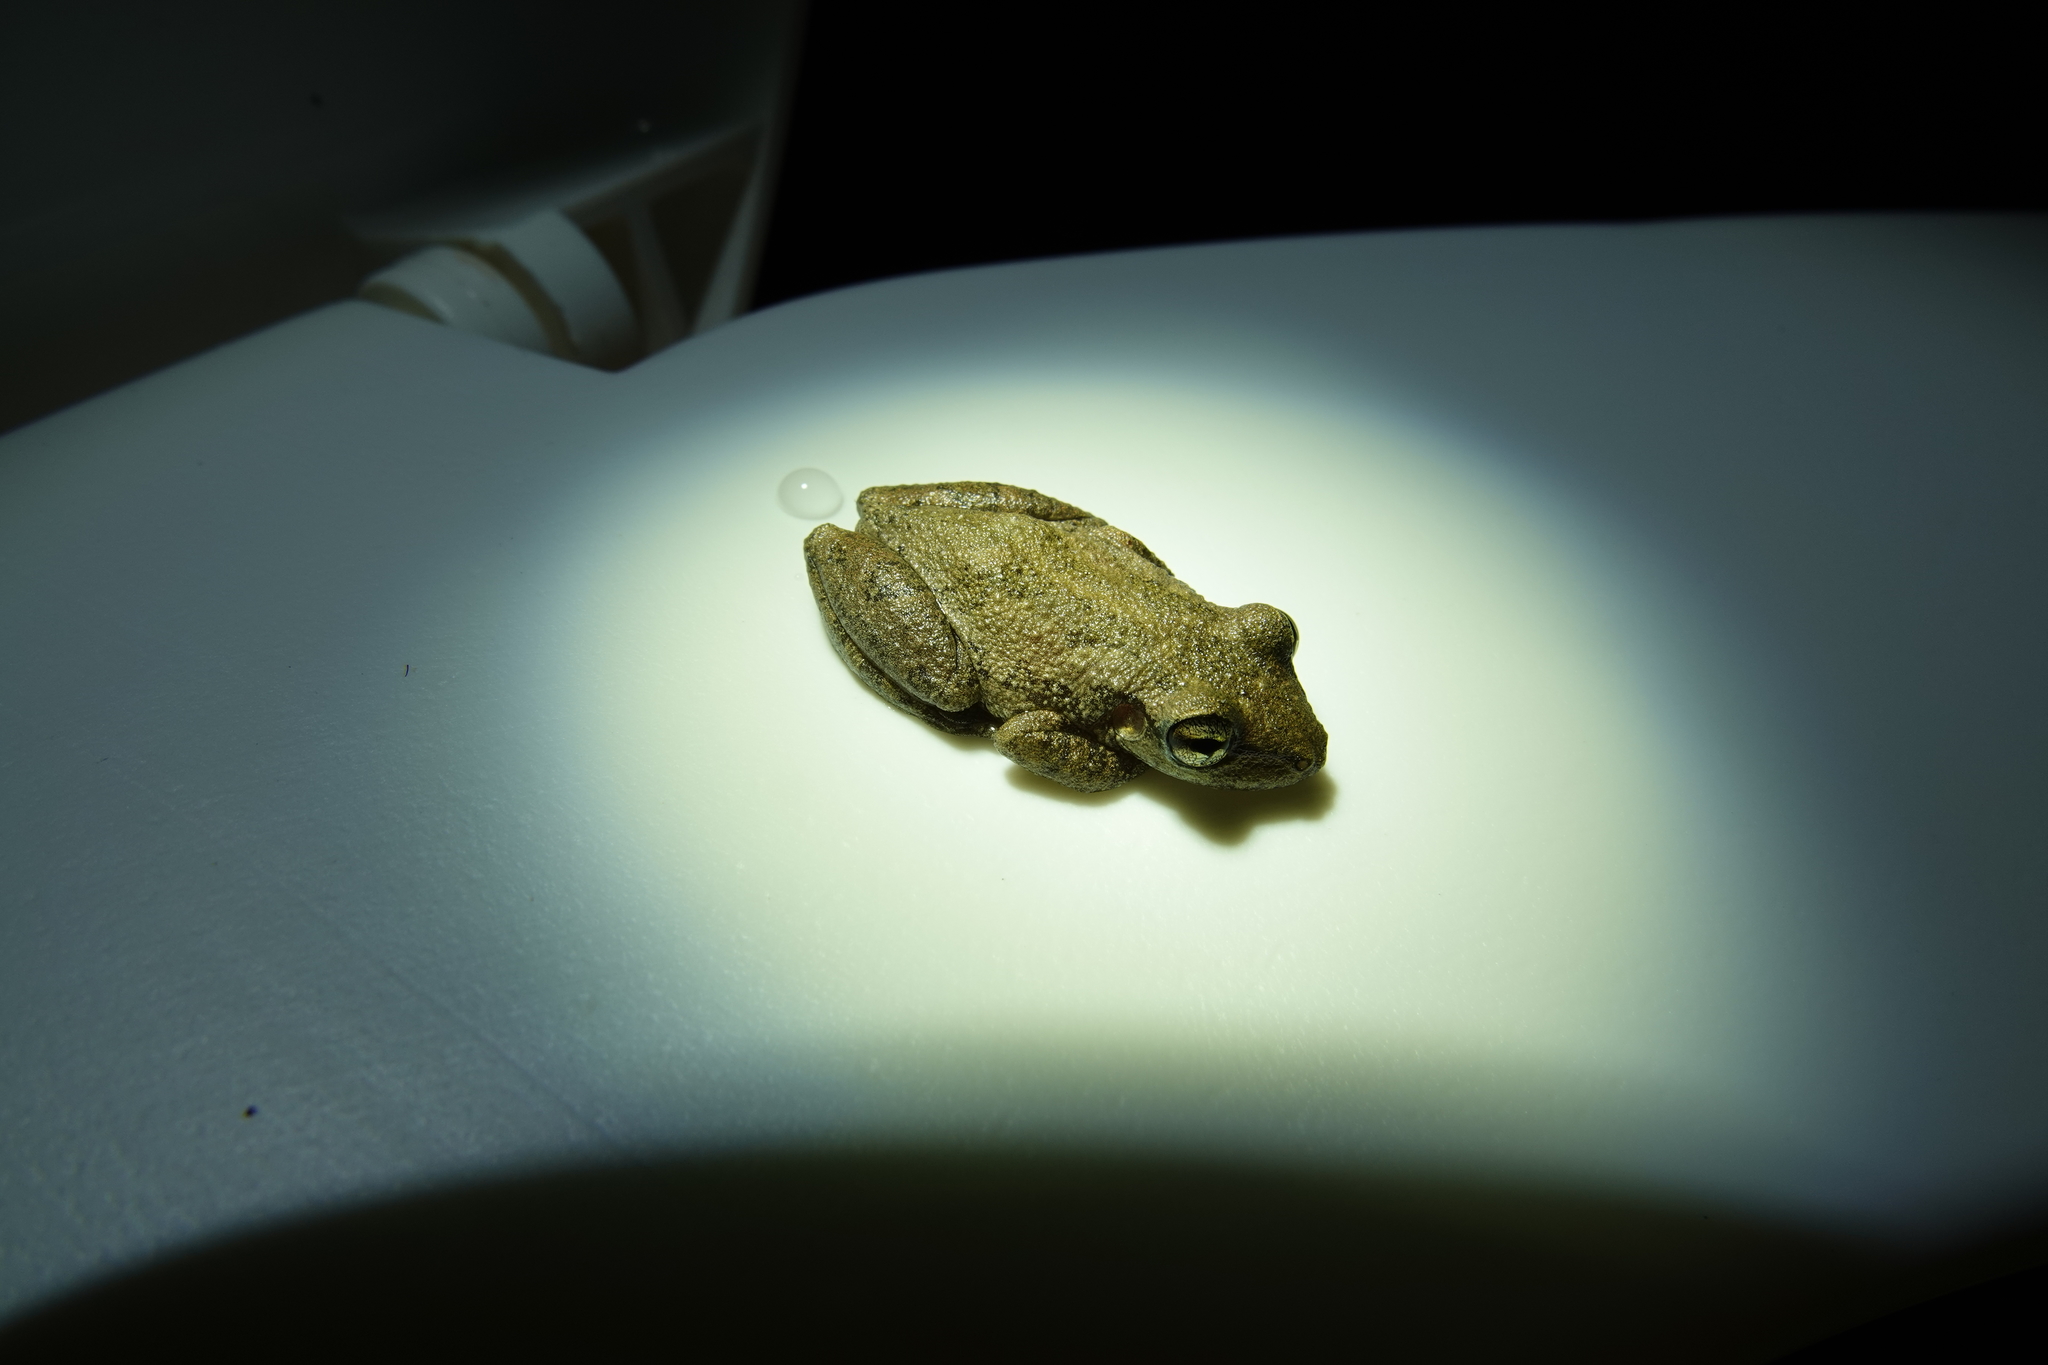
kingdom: Animalia
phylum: Chordata
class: Amphibia
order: Anura
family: Hylidae
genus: Scinax
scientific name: Scinax ruber
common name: Red snouted treefrog
